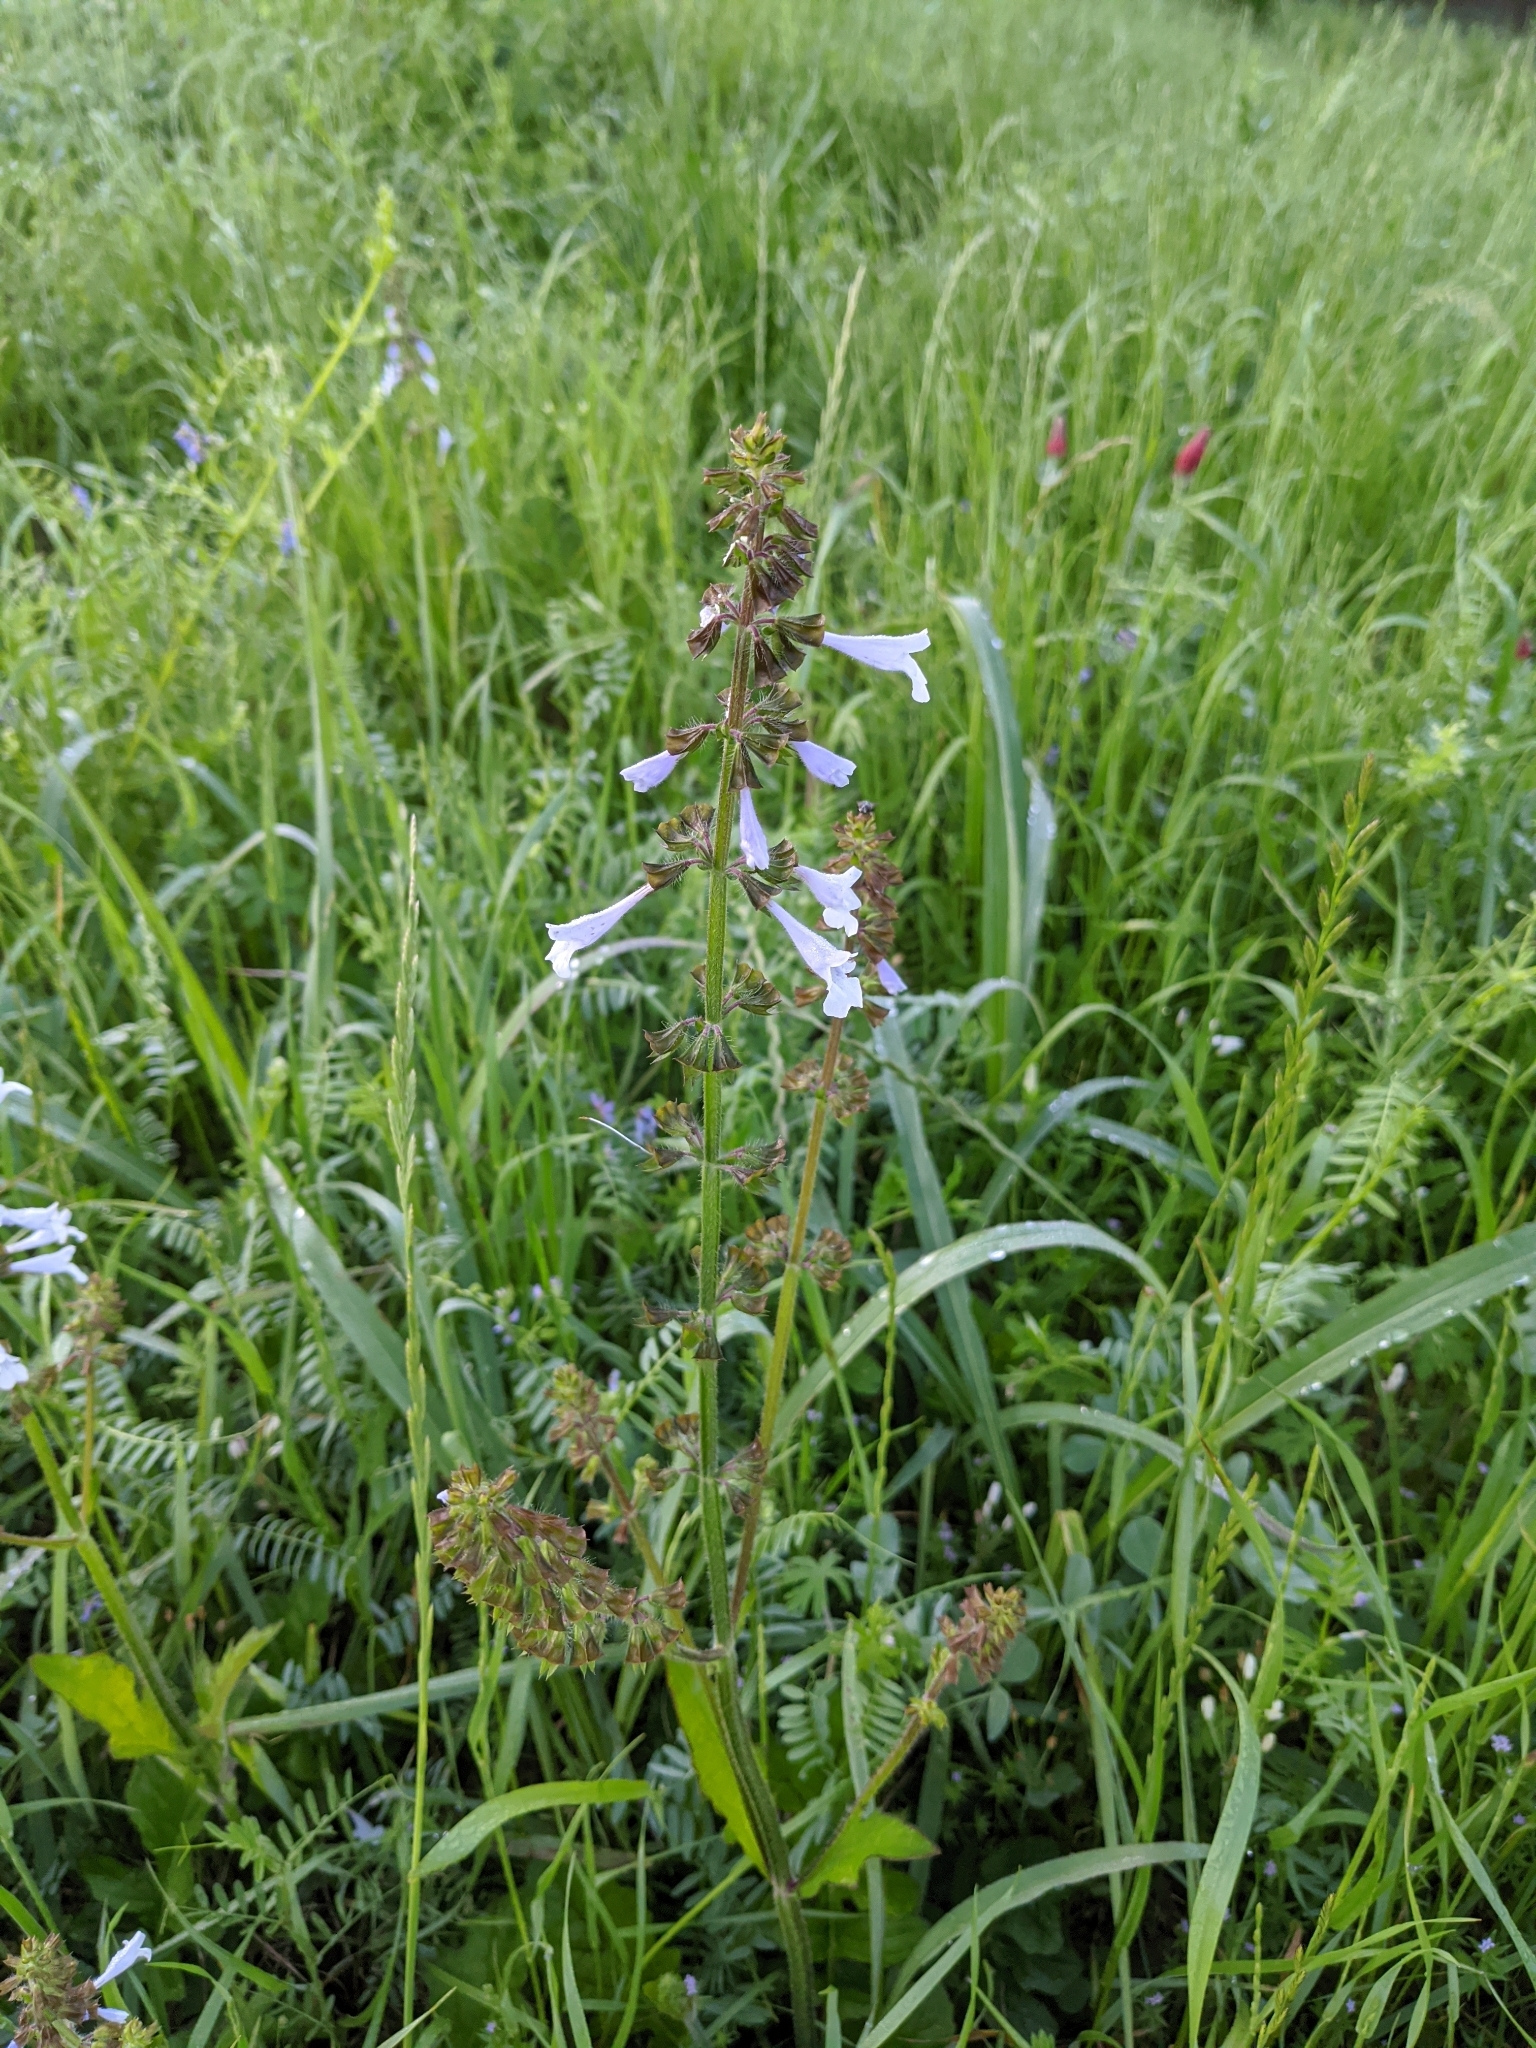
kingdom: Plantae
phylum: Tracheophyta
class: Magnoliopsida
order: Lamiales
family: Lamiaceae
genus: Salvia
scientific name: Salvia lyrata
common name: Cancerweed
